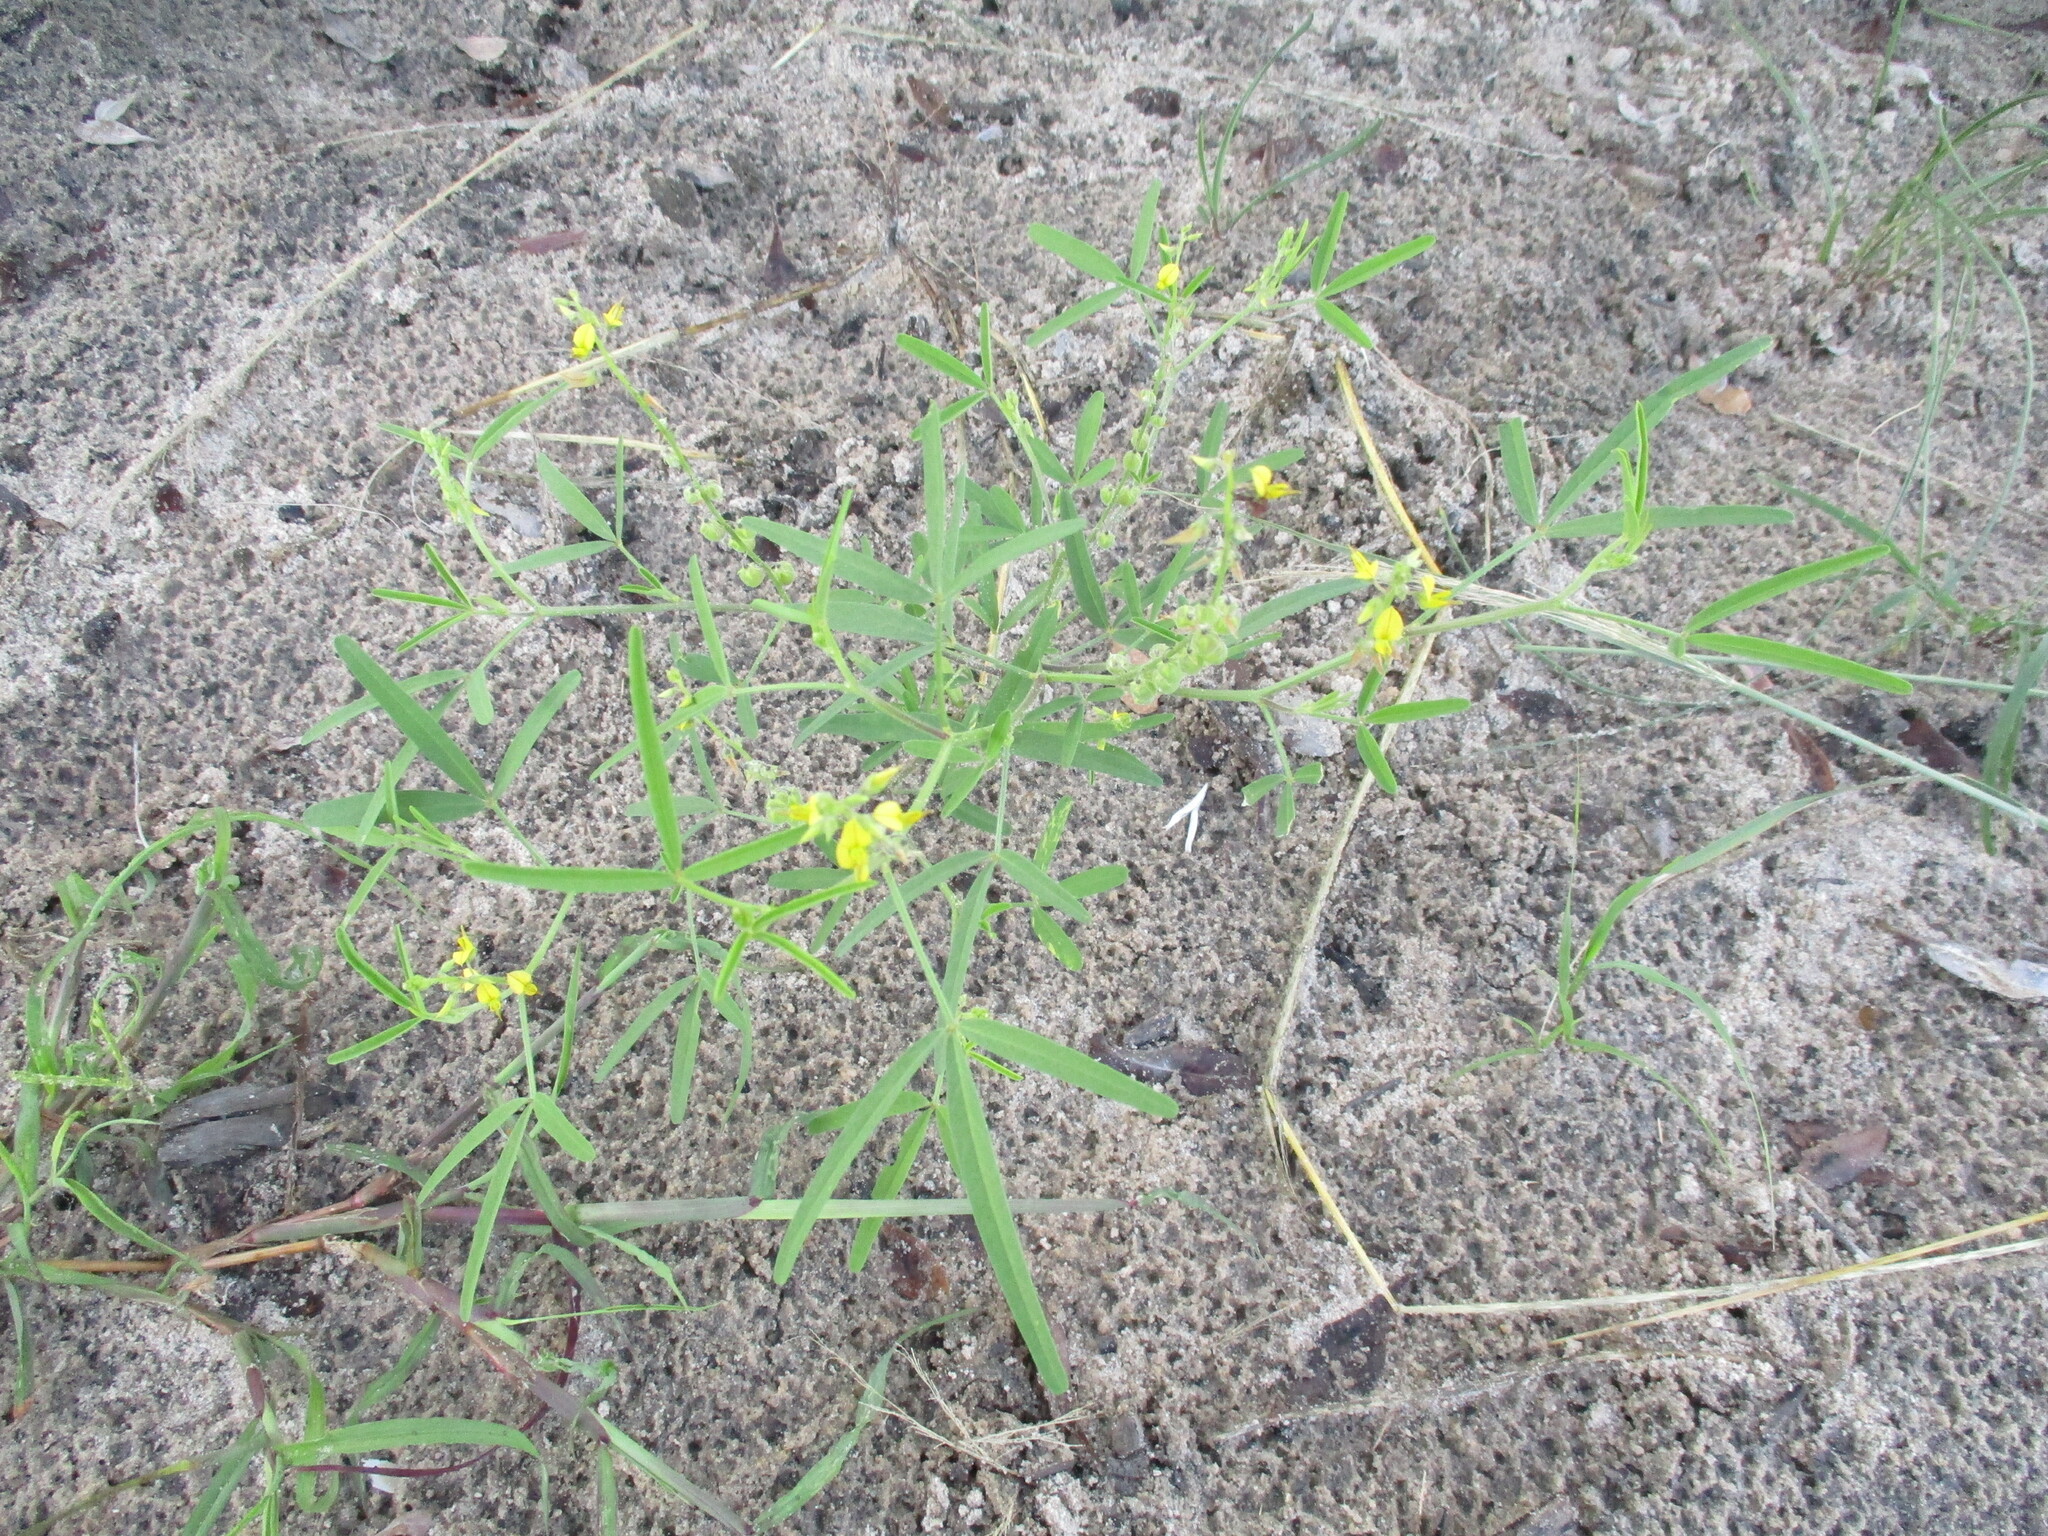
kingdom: Plantae
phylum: Tracheophyta
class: Magnoliopsida
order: Fabales
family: Fabaceae
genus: Crotalaria
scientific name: Crotalaria sphaerocarpa
